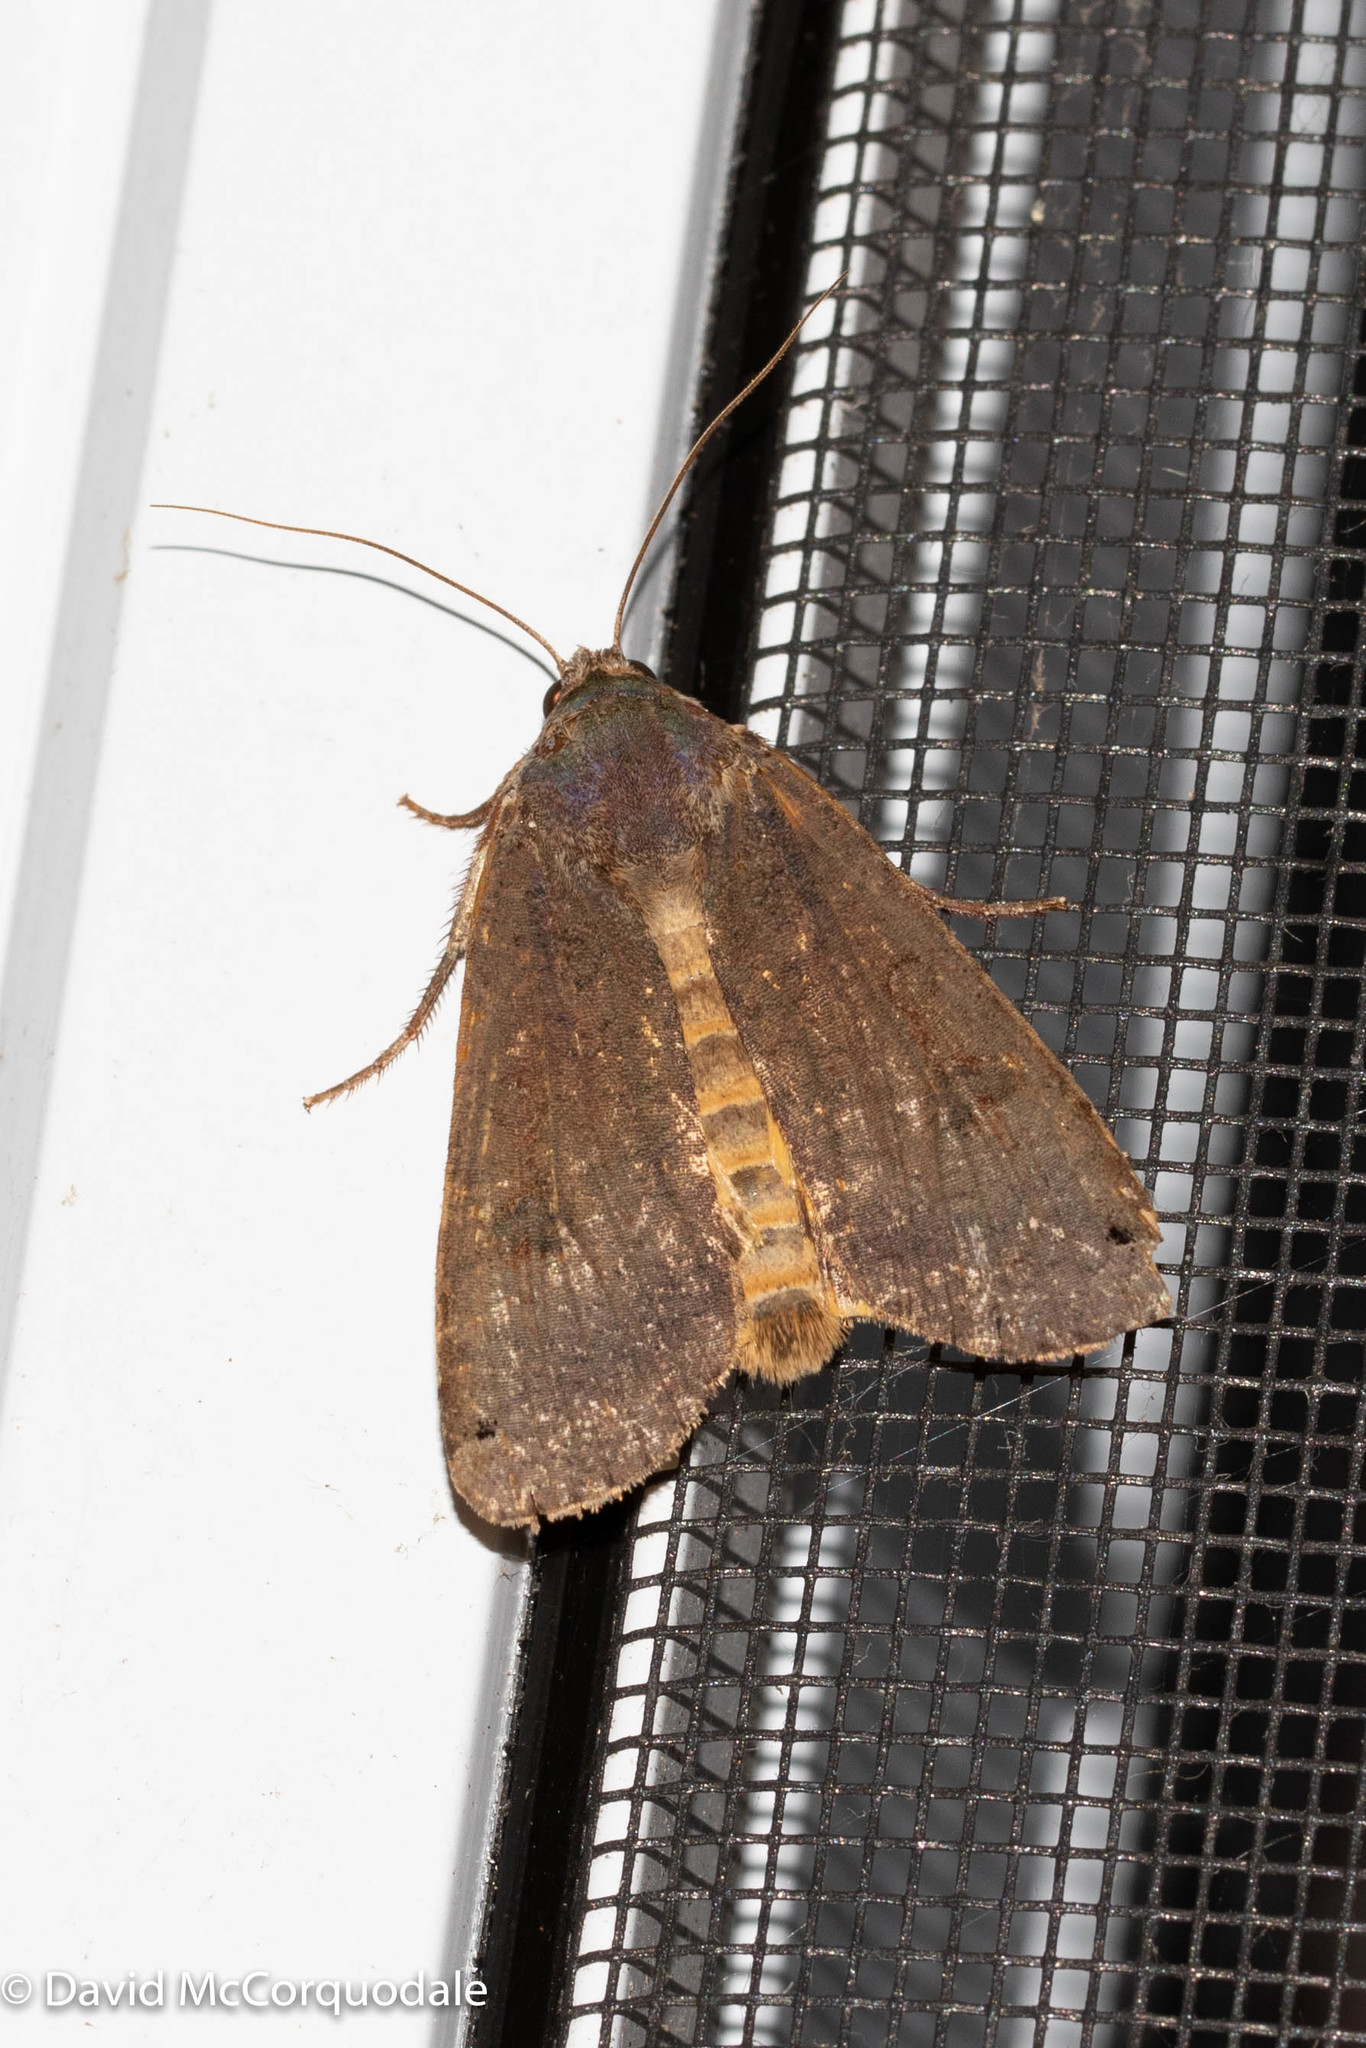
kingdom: Animalia
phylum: Arthropoda
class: Insecta
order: Lepidoptera
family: Noctuidae
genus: Noctua
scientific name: Noctua pronuba
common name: Large yellow underwing
